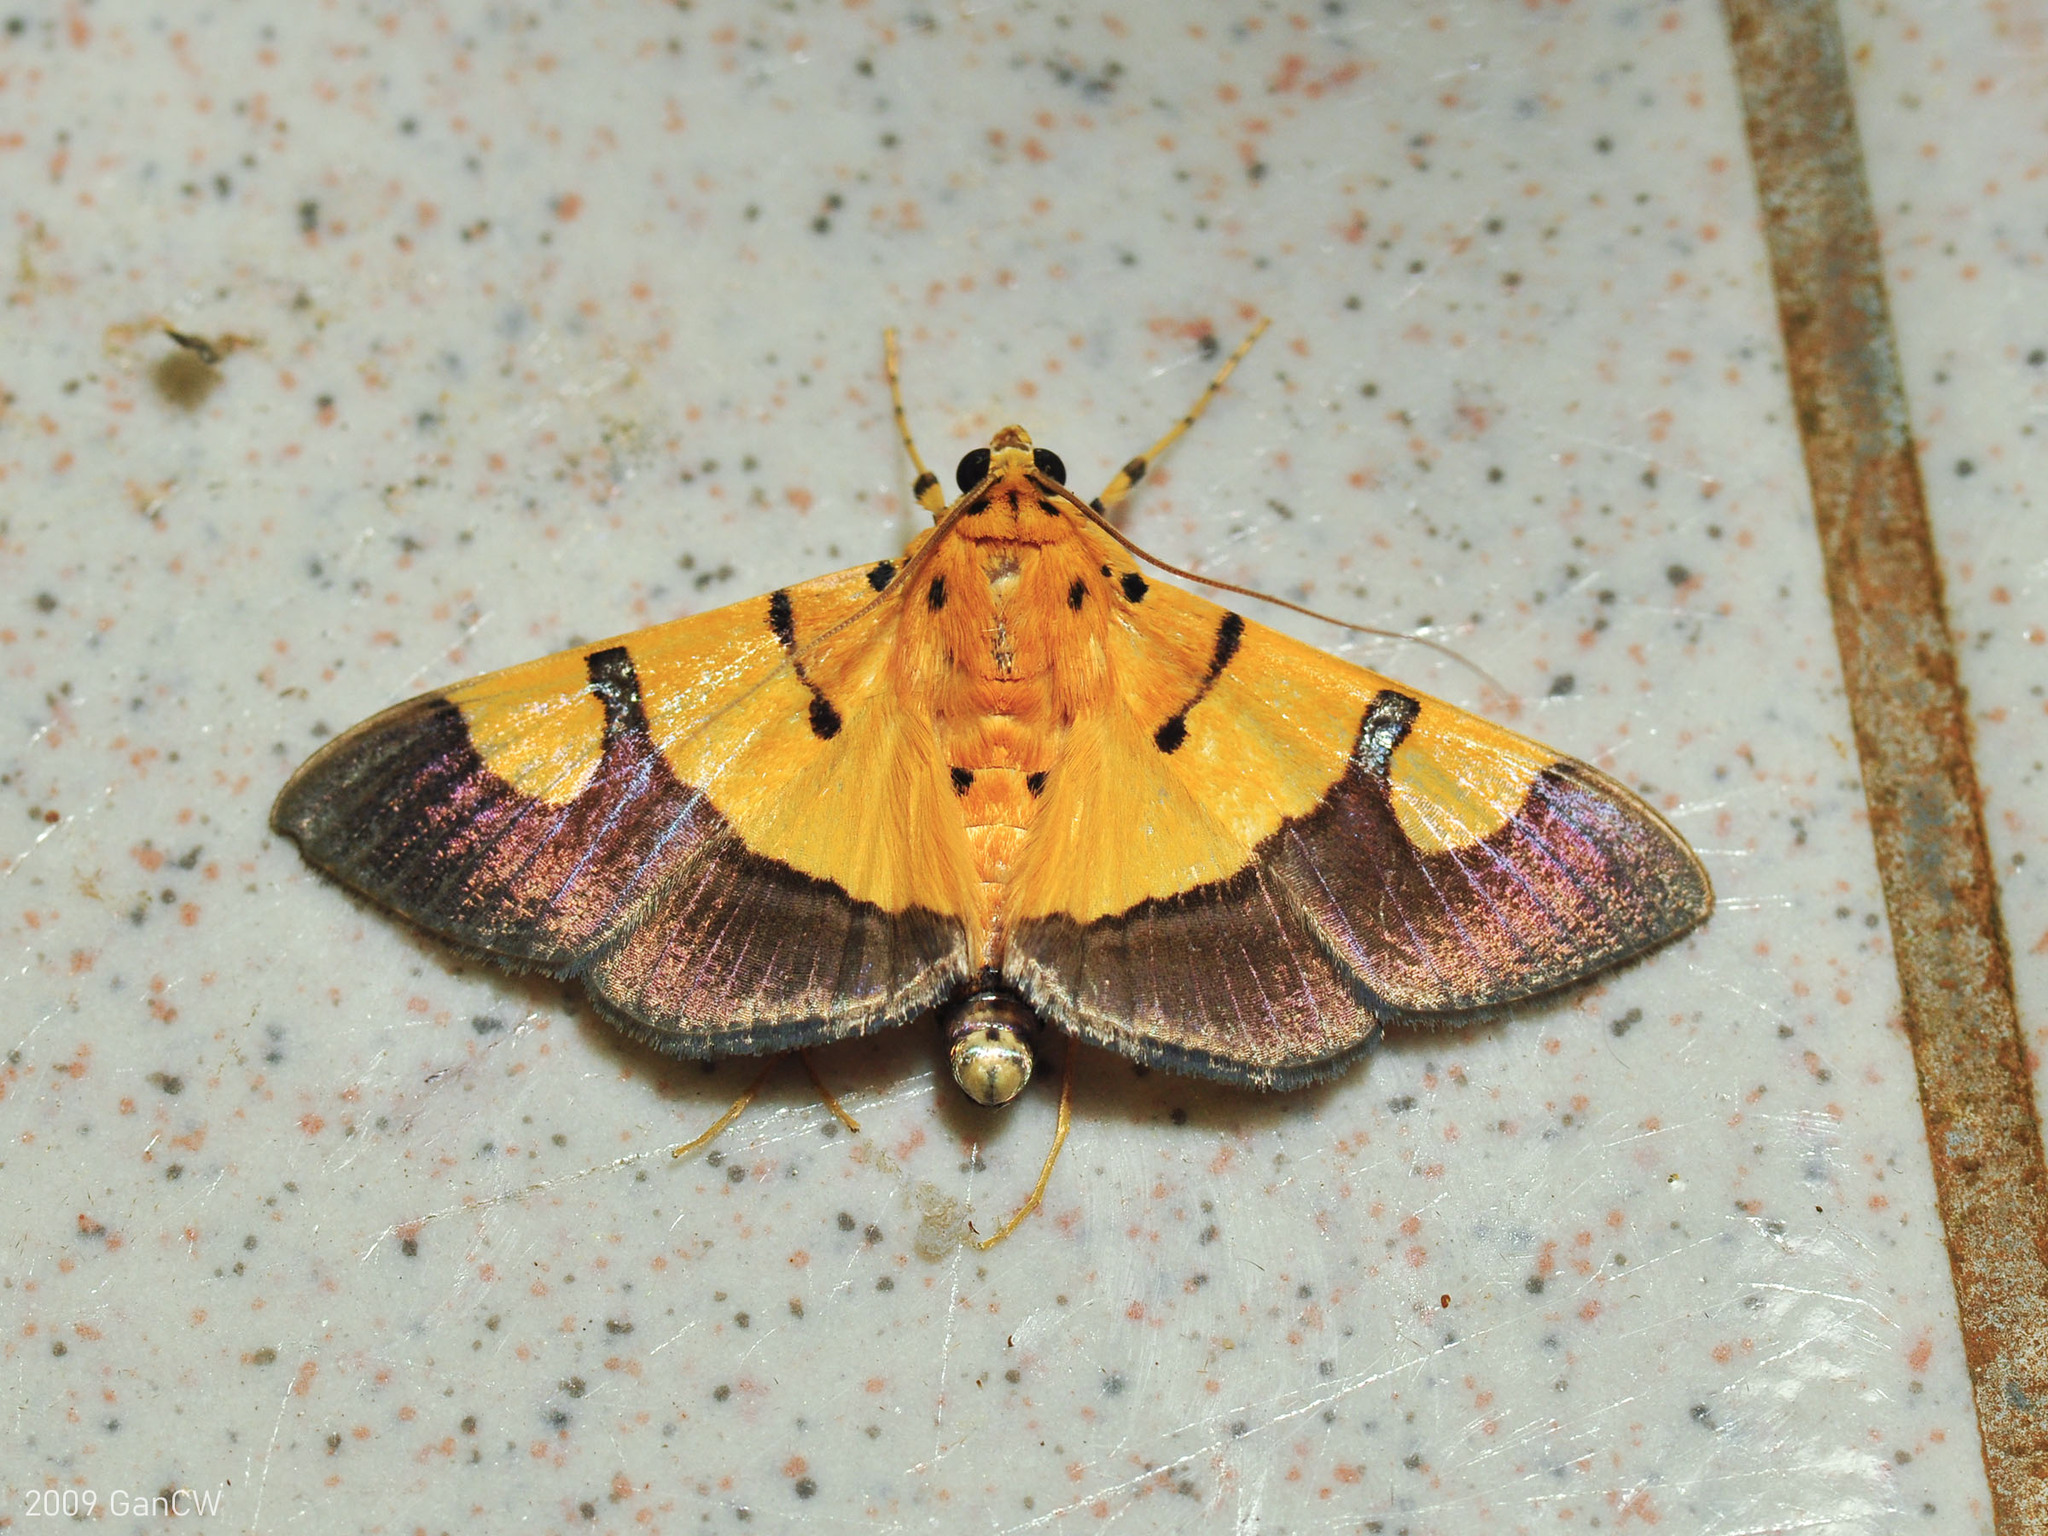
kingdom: Animalia
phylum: Arthropoda
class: Insecta
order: Lepidoptera
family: Crambidae
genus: Botyodes
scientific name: Botyodes
